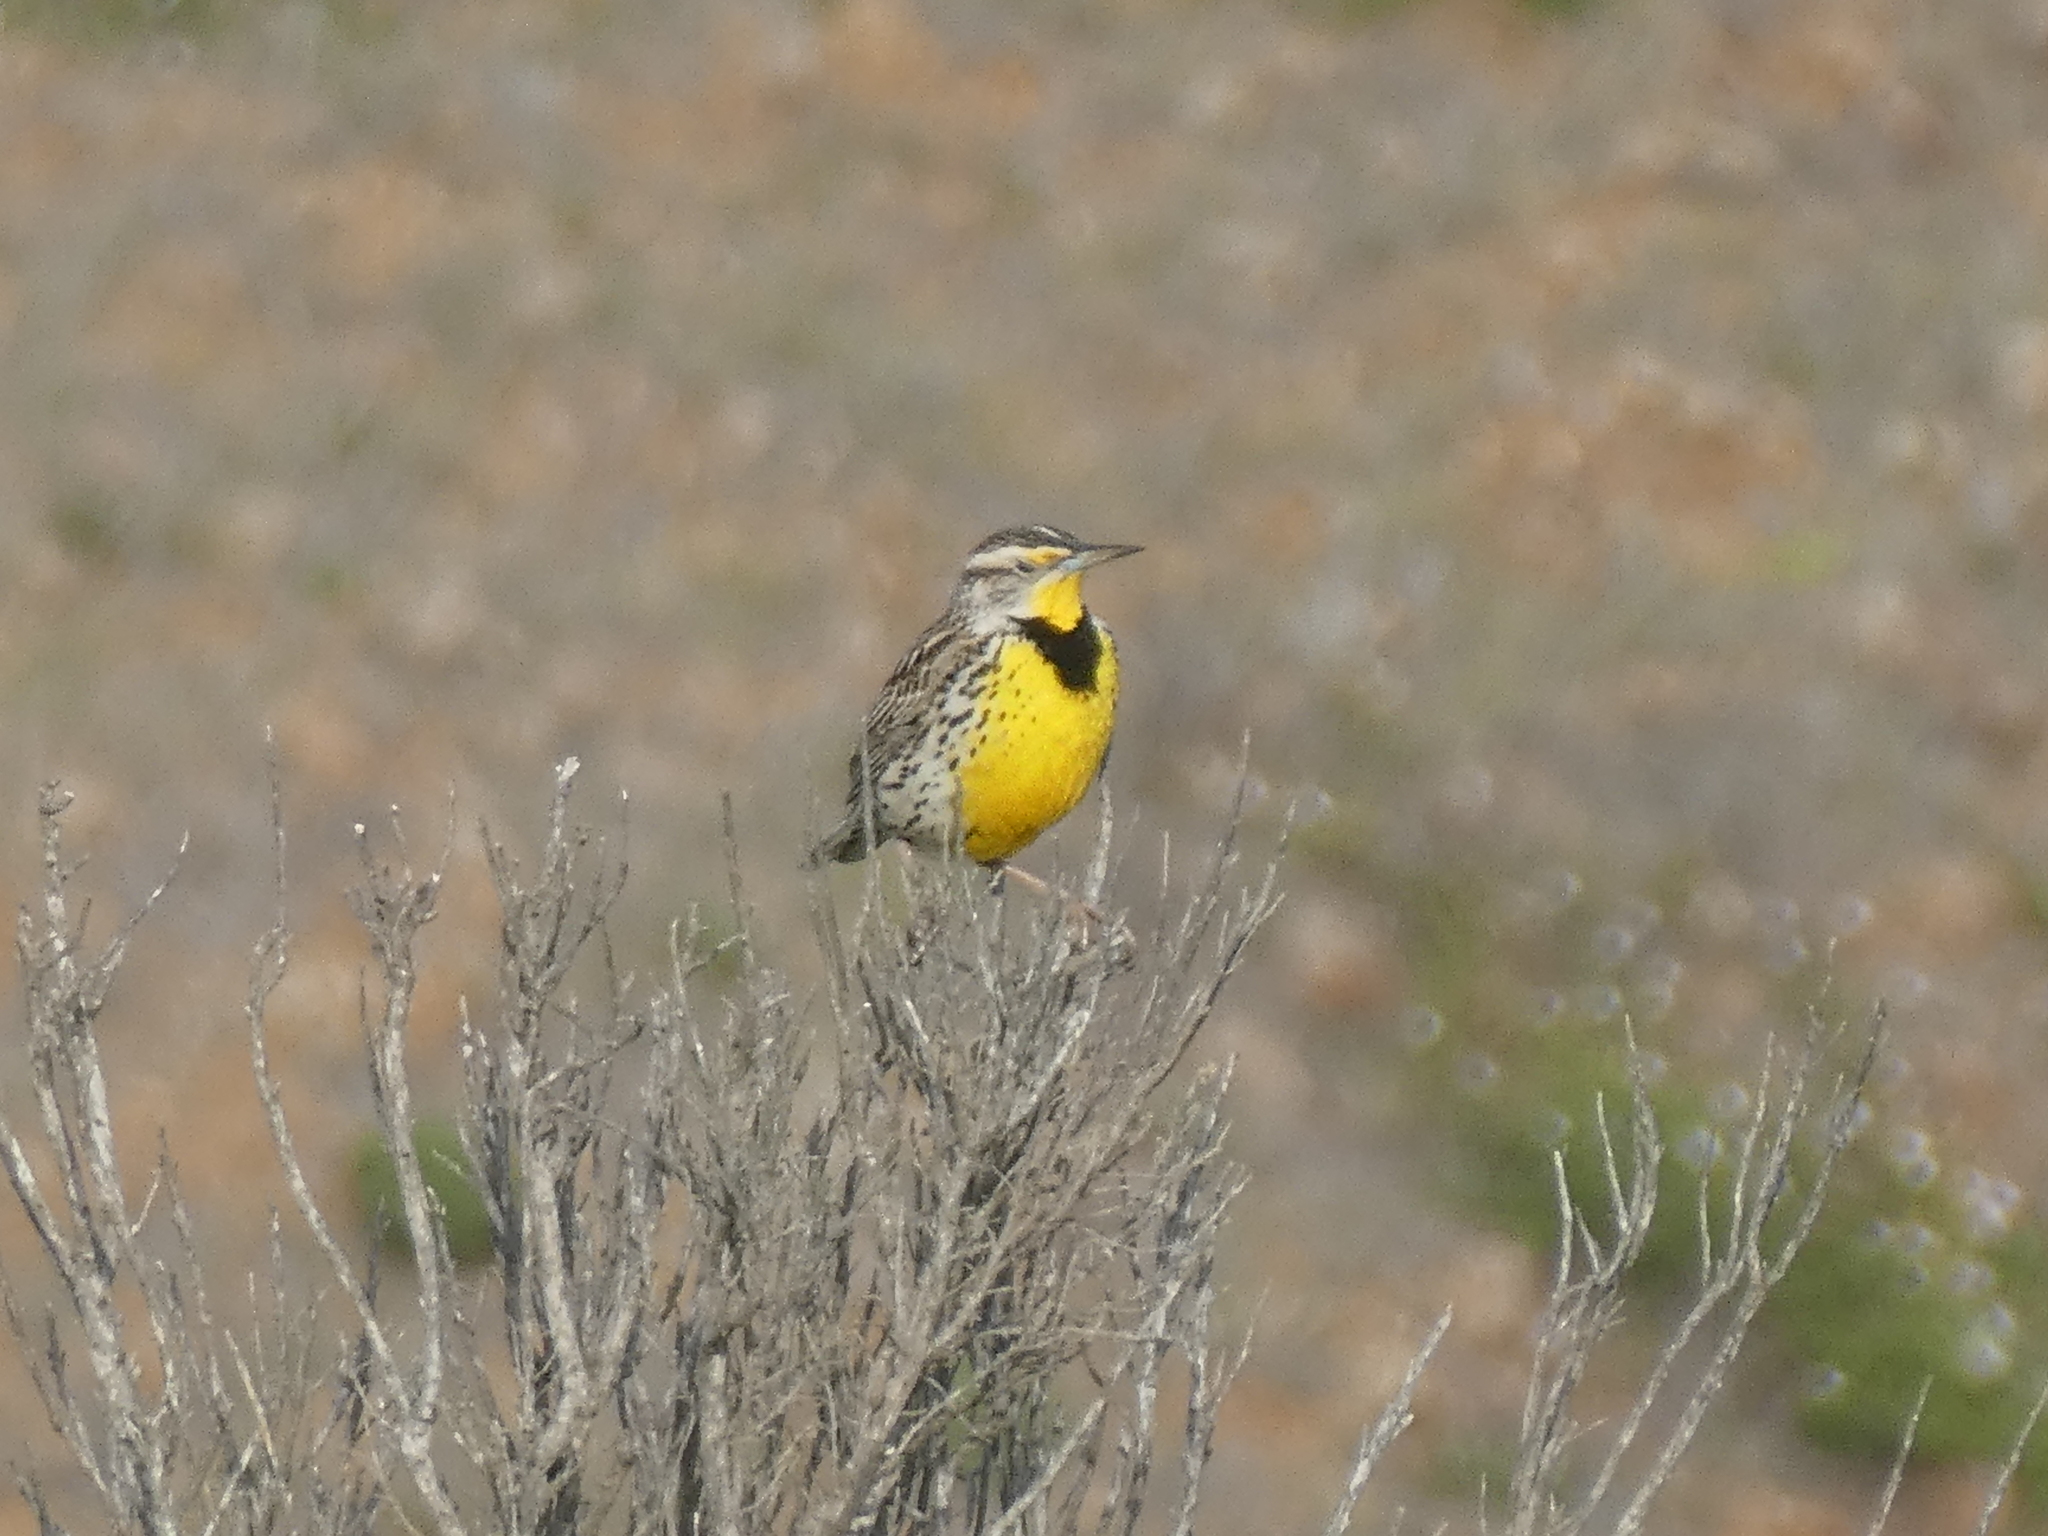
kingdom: Animalia
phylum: Chordata
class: Aves
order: Passeriformes
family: Icteridae
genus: Sturnella
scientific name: Sturnella neglecta
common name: Western meadowlark
